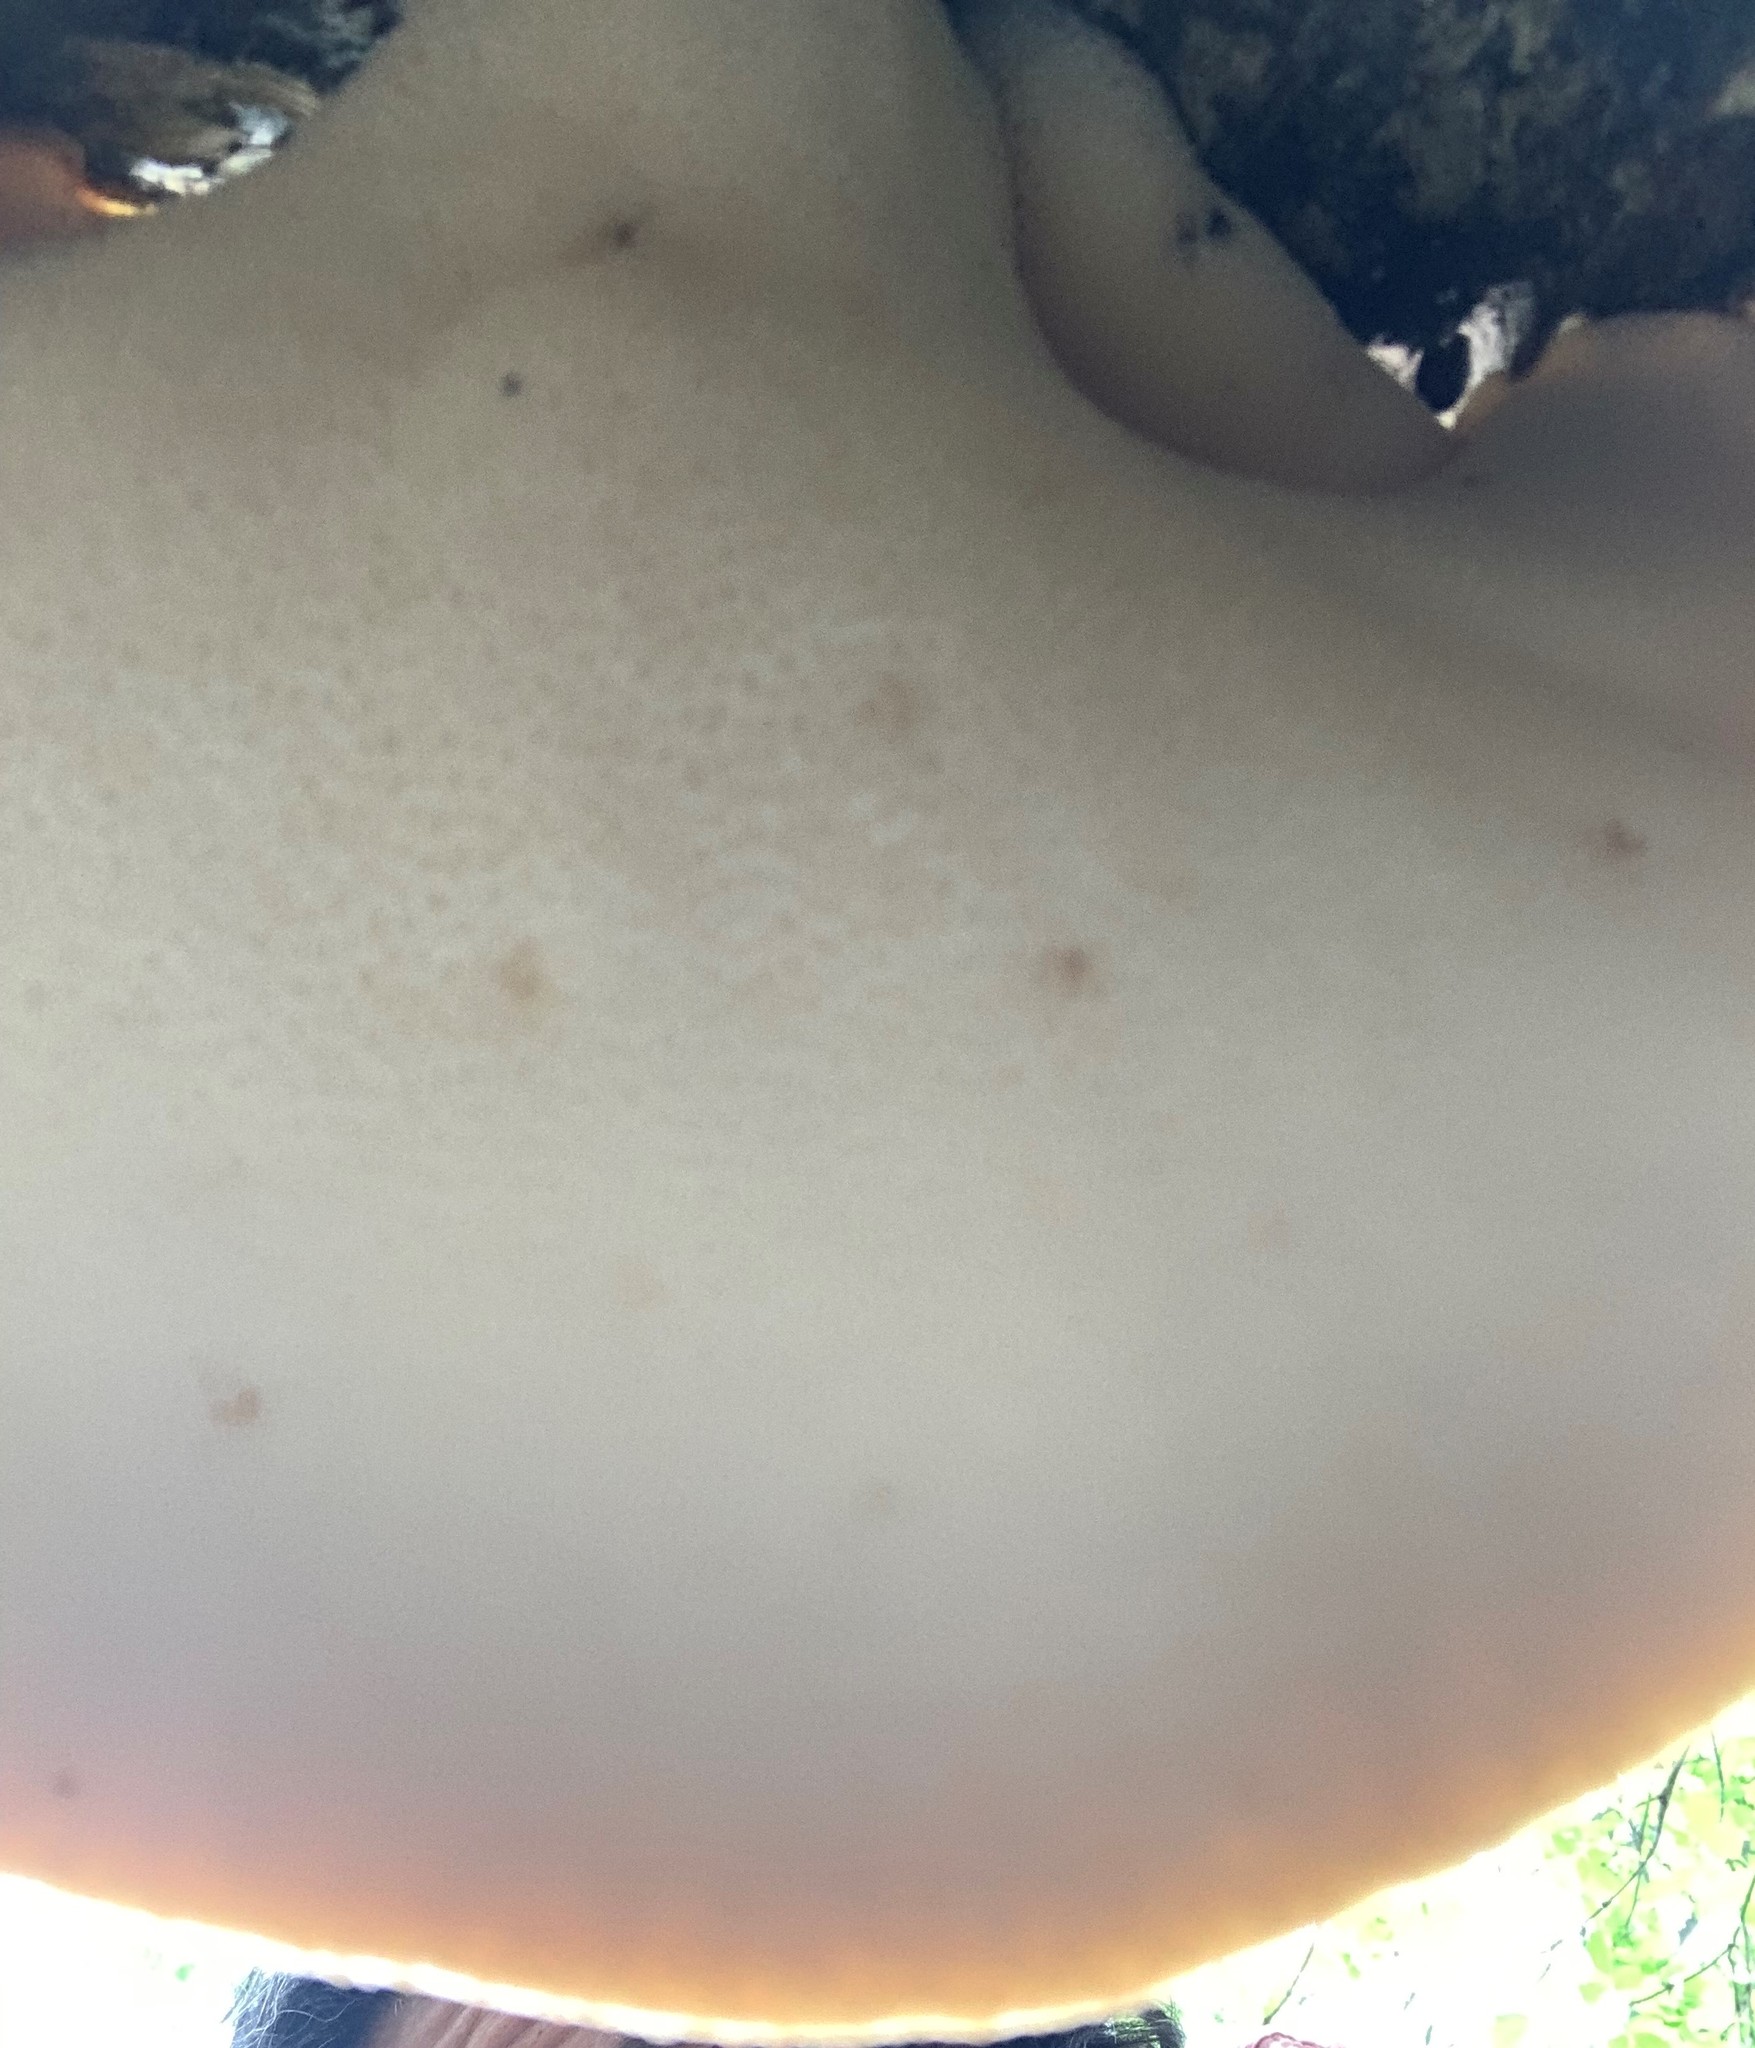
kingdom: Fungi
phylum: Basidiomycota
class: Agaricomycetes
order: Polyporales
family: Polyporaceae
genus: Cerioporus
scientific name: Cerioporus squamosus
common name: Dryad's saddle
